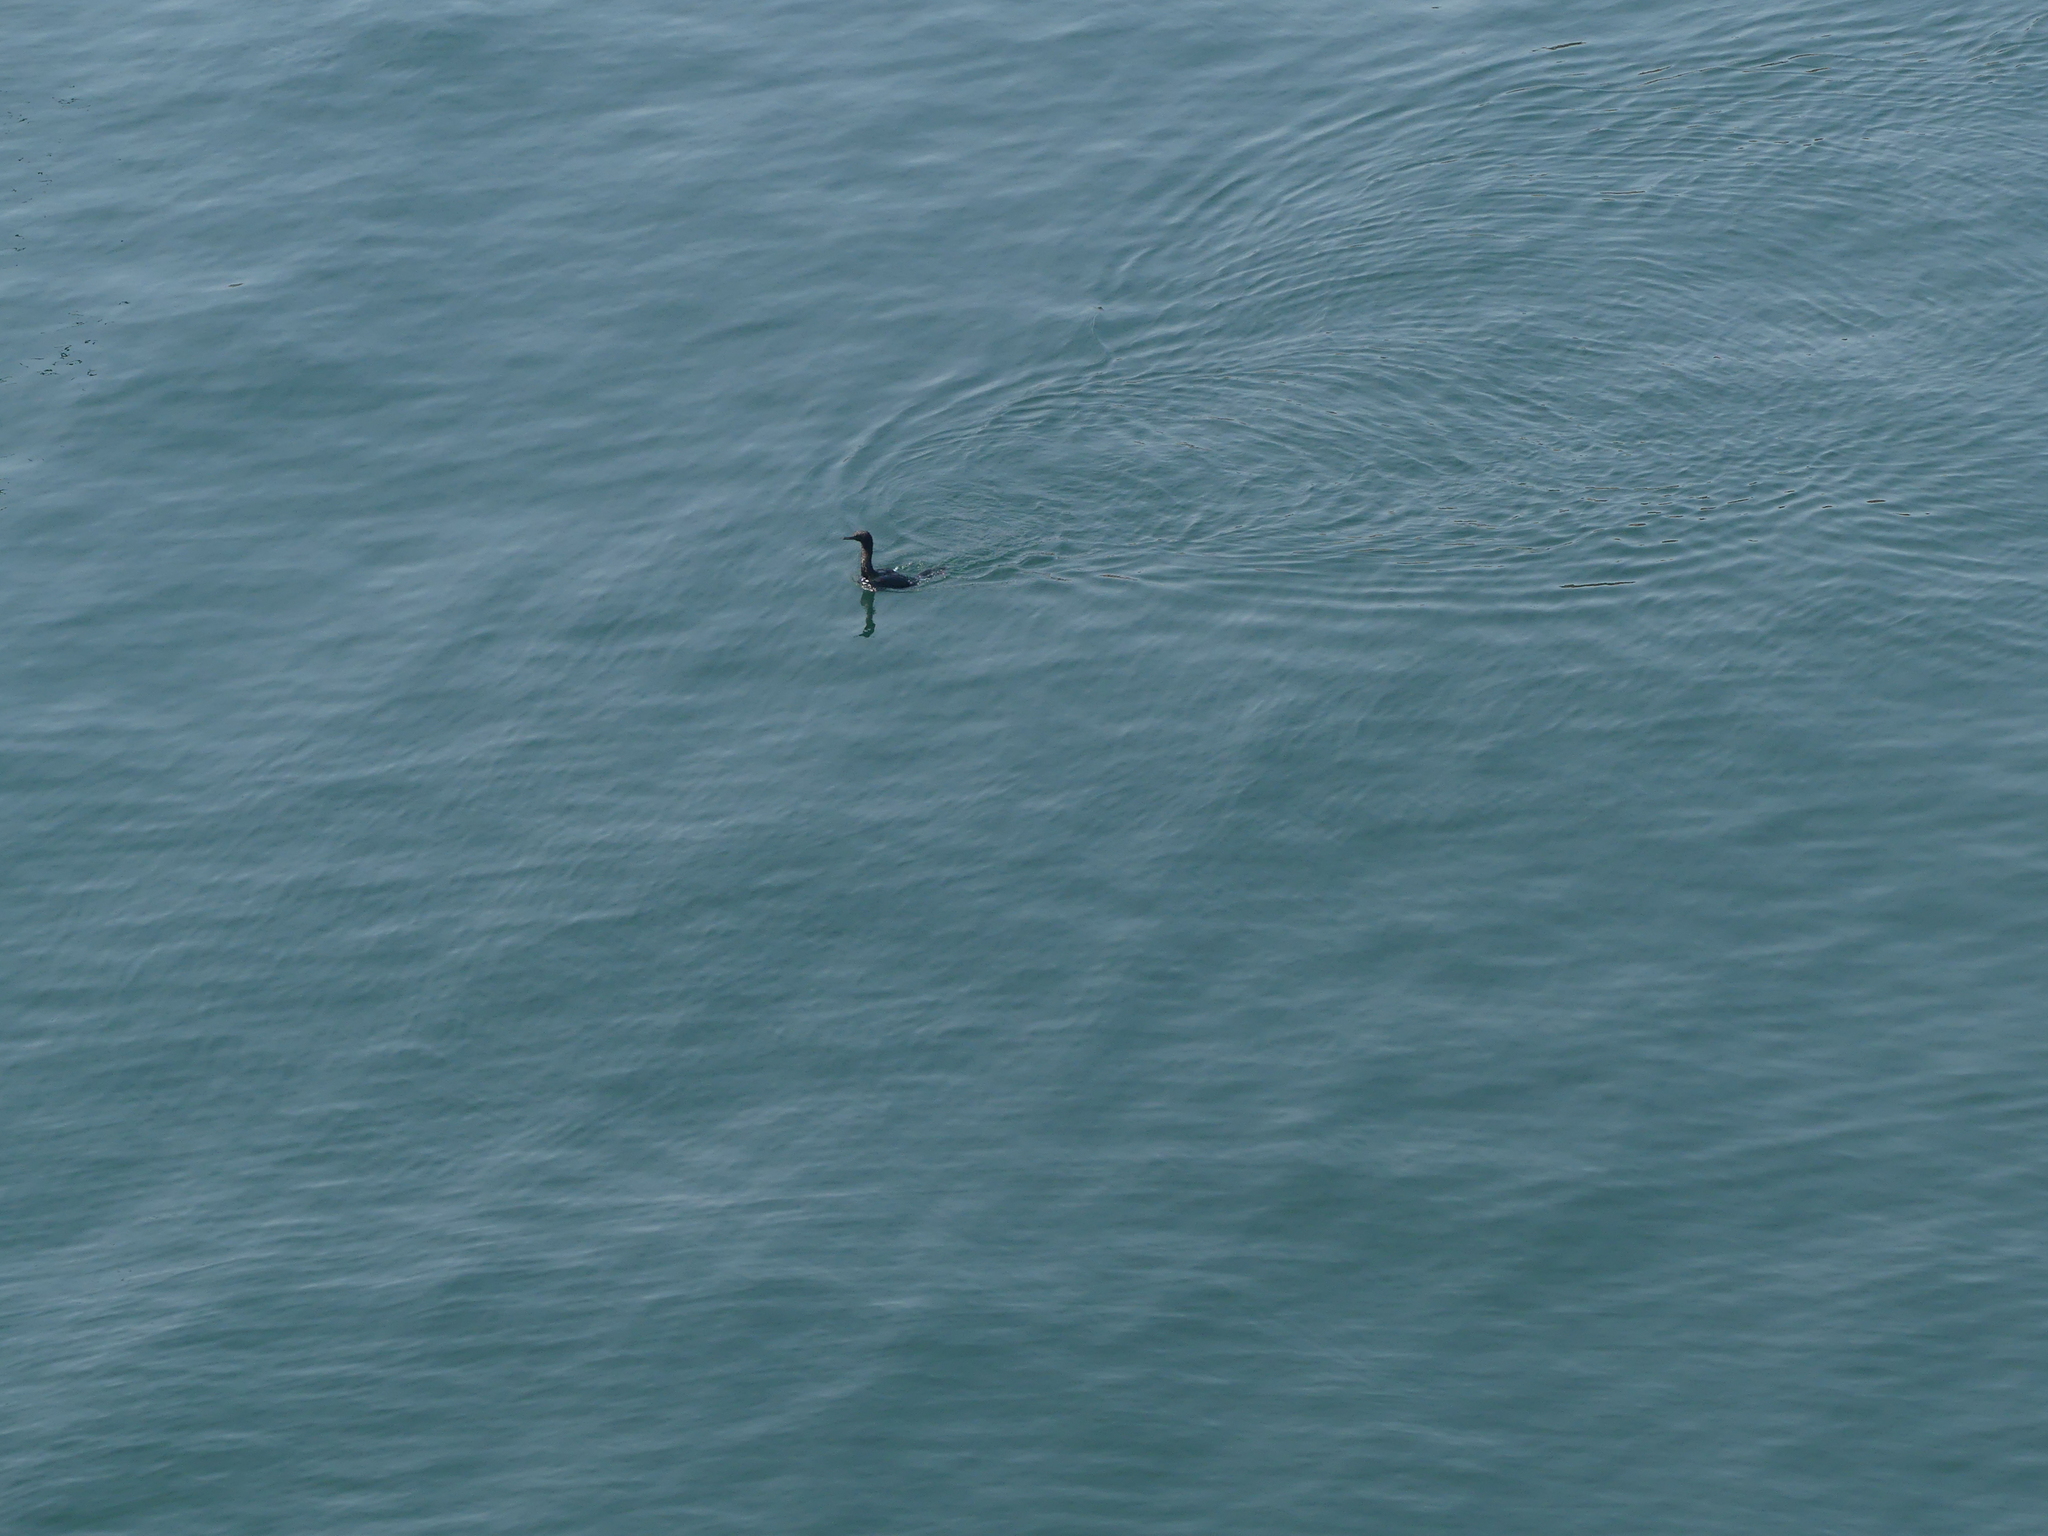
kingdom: Animalia
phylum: Chordata
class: Aves
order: Suliformes
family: Phalacrocoracidae
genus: Phalacrocorax
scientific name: Phalacrocorax pelagicus
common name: Pelagic cormorant
